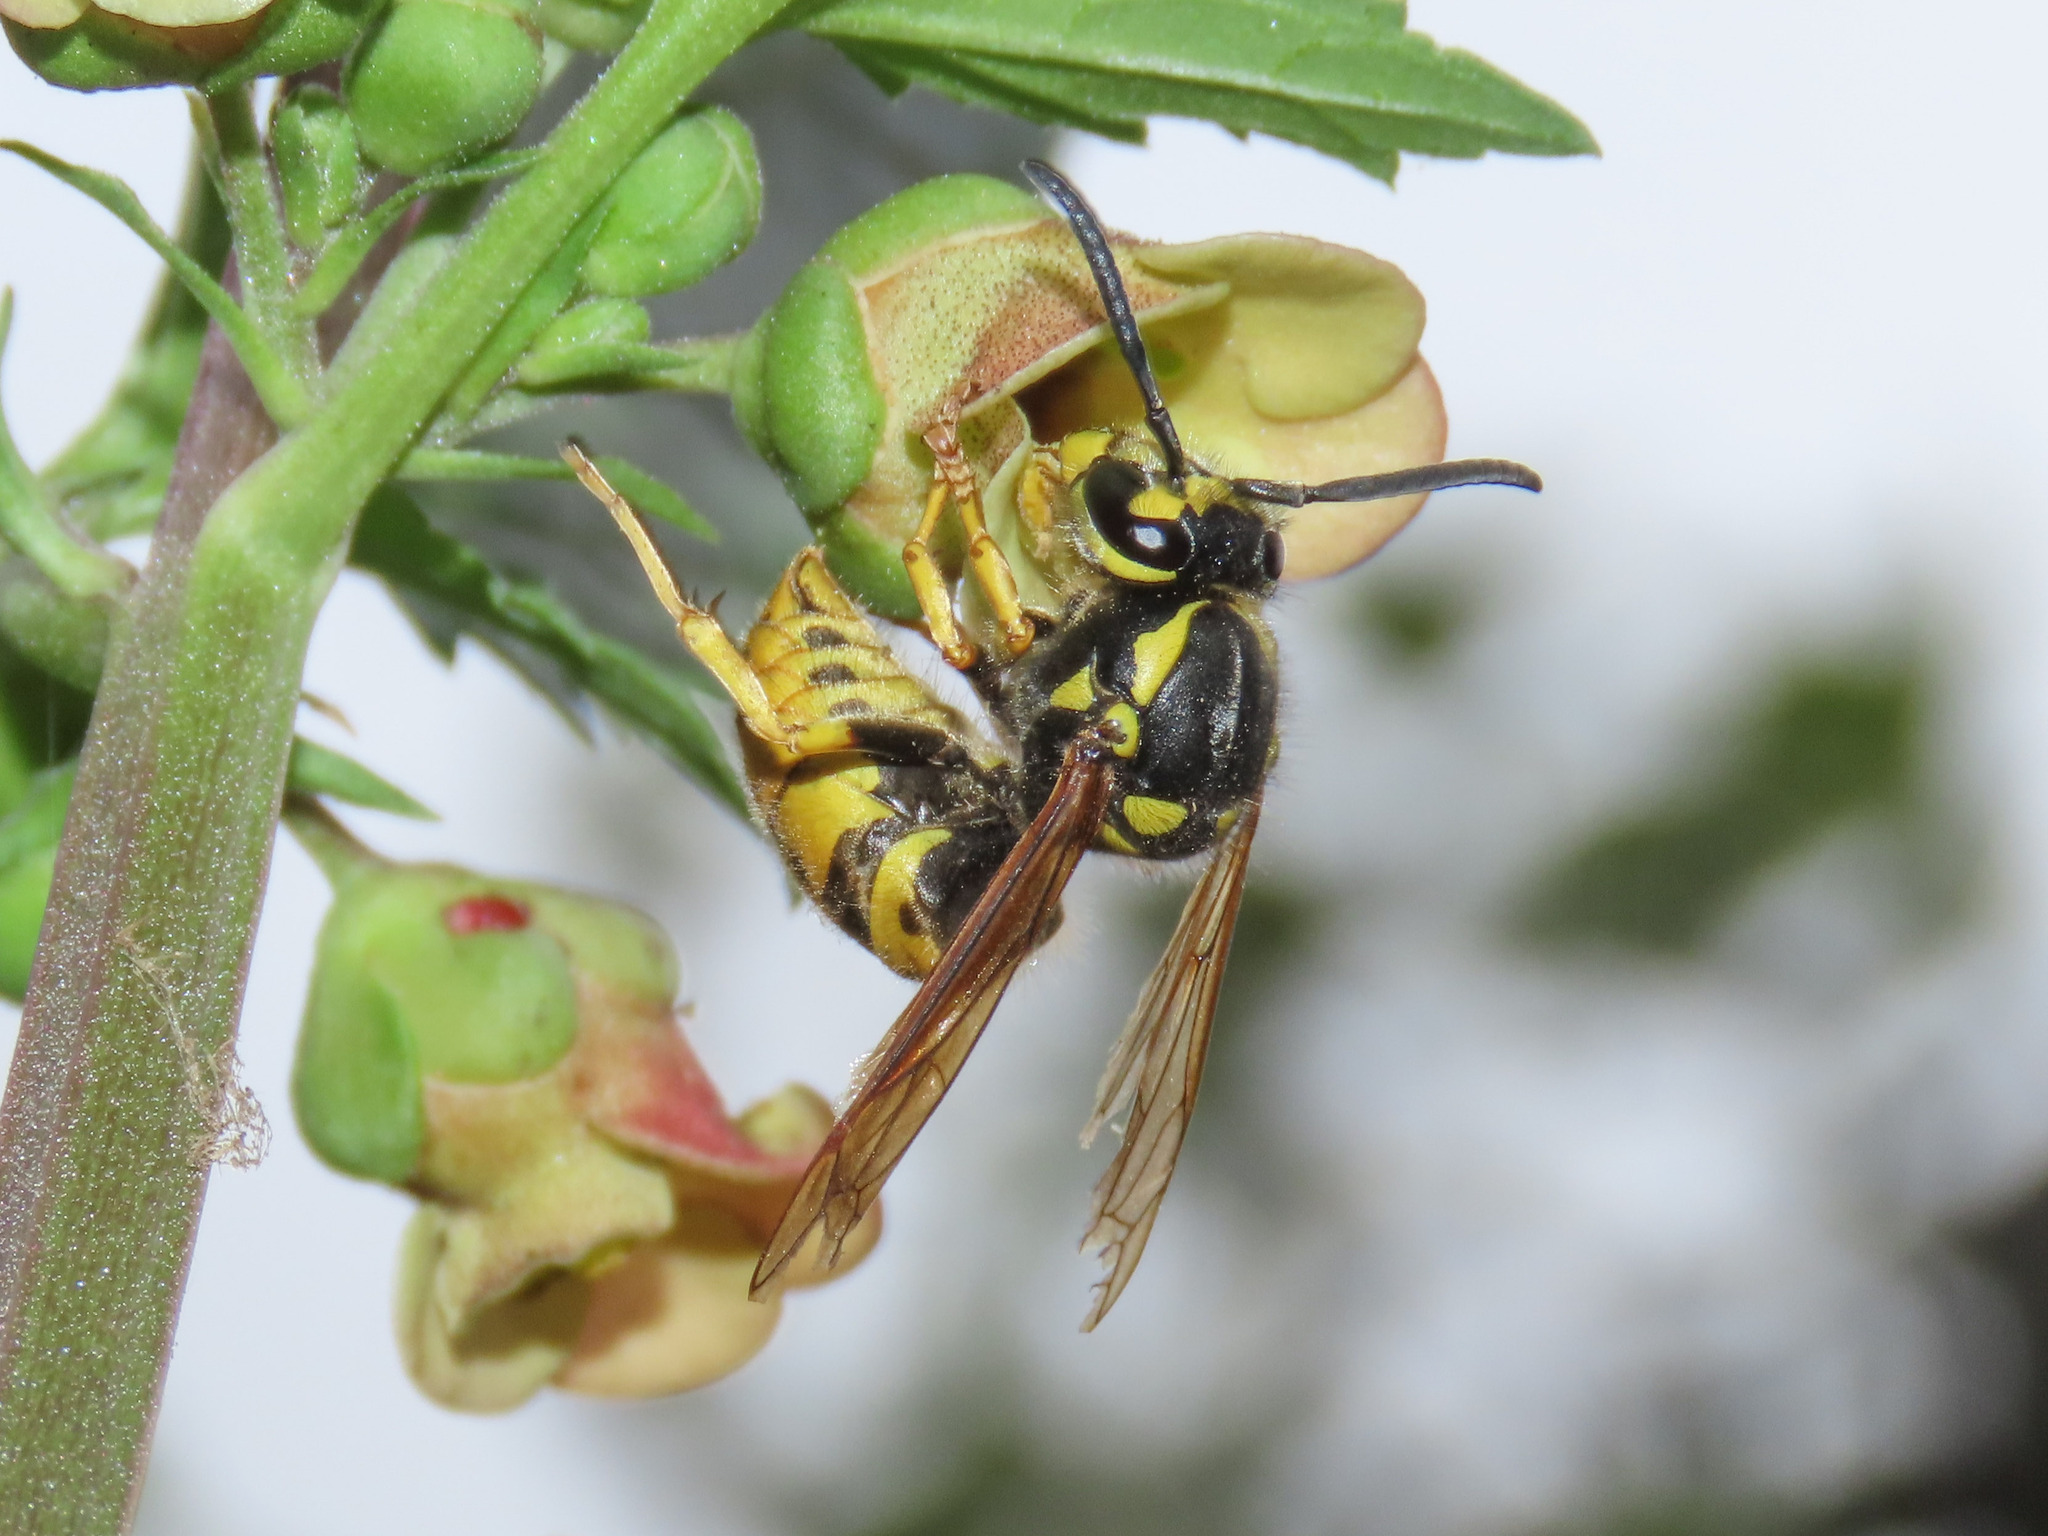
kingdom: Animalia
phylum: Arthropoda
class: Insecta
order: Hymenoptera
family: Vespidae
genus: Vespula
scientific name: Vespula germanica
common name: German wasp
